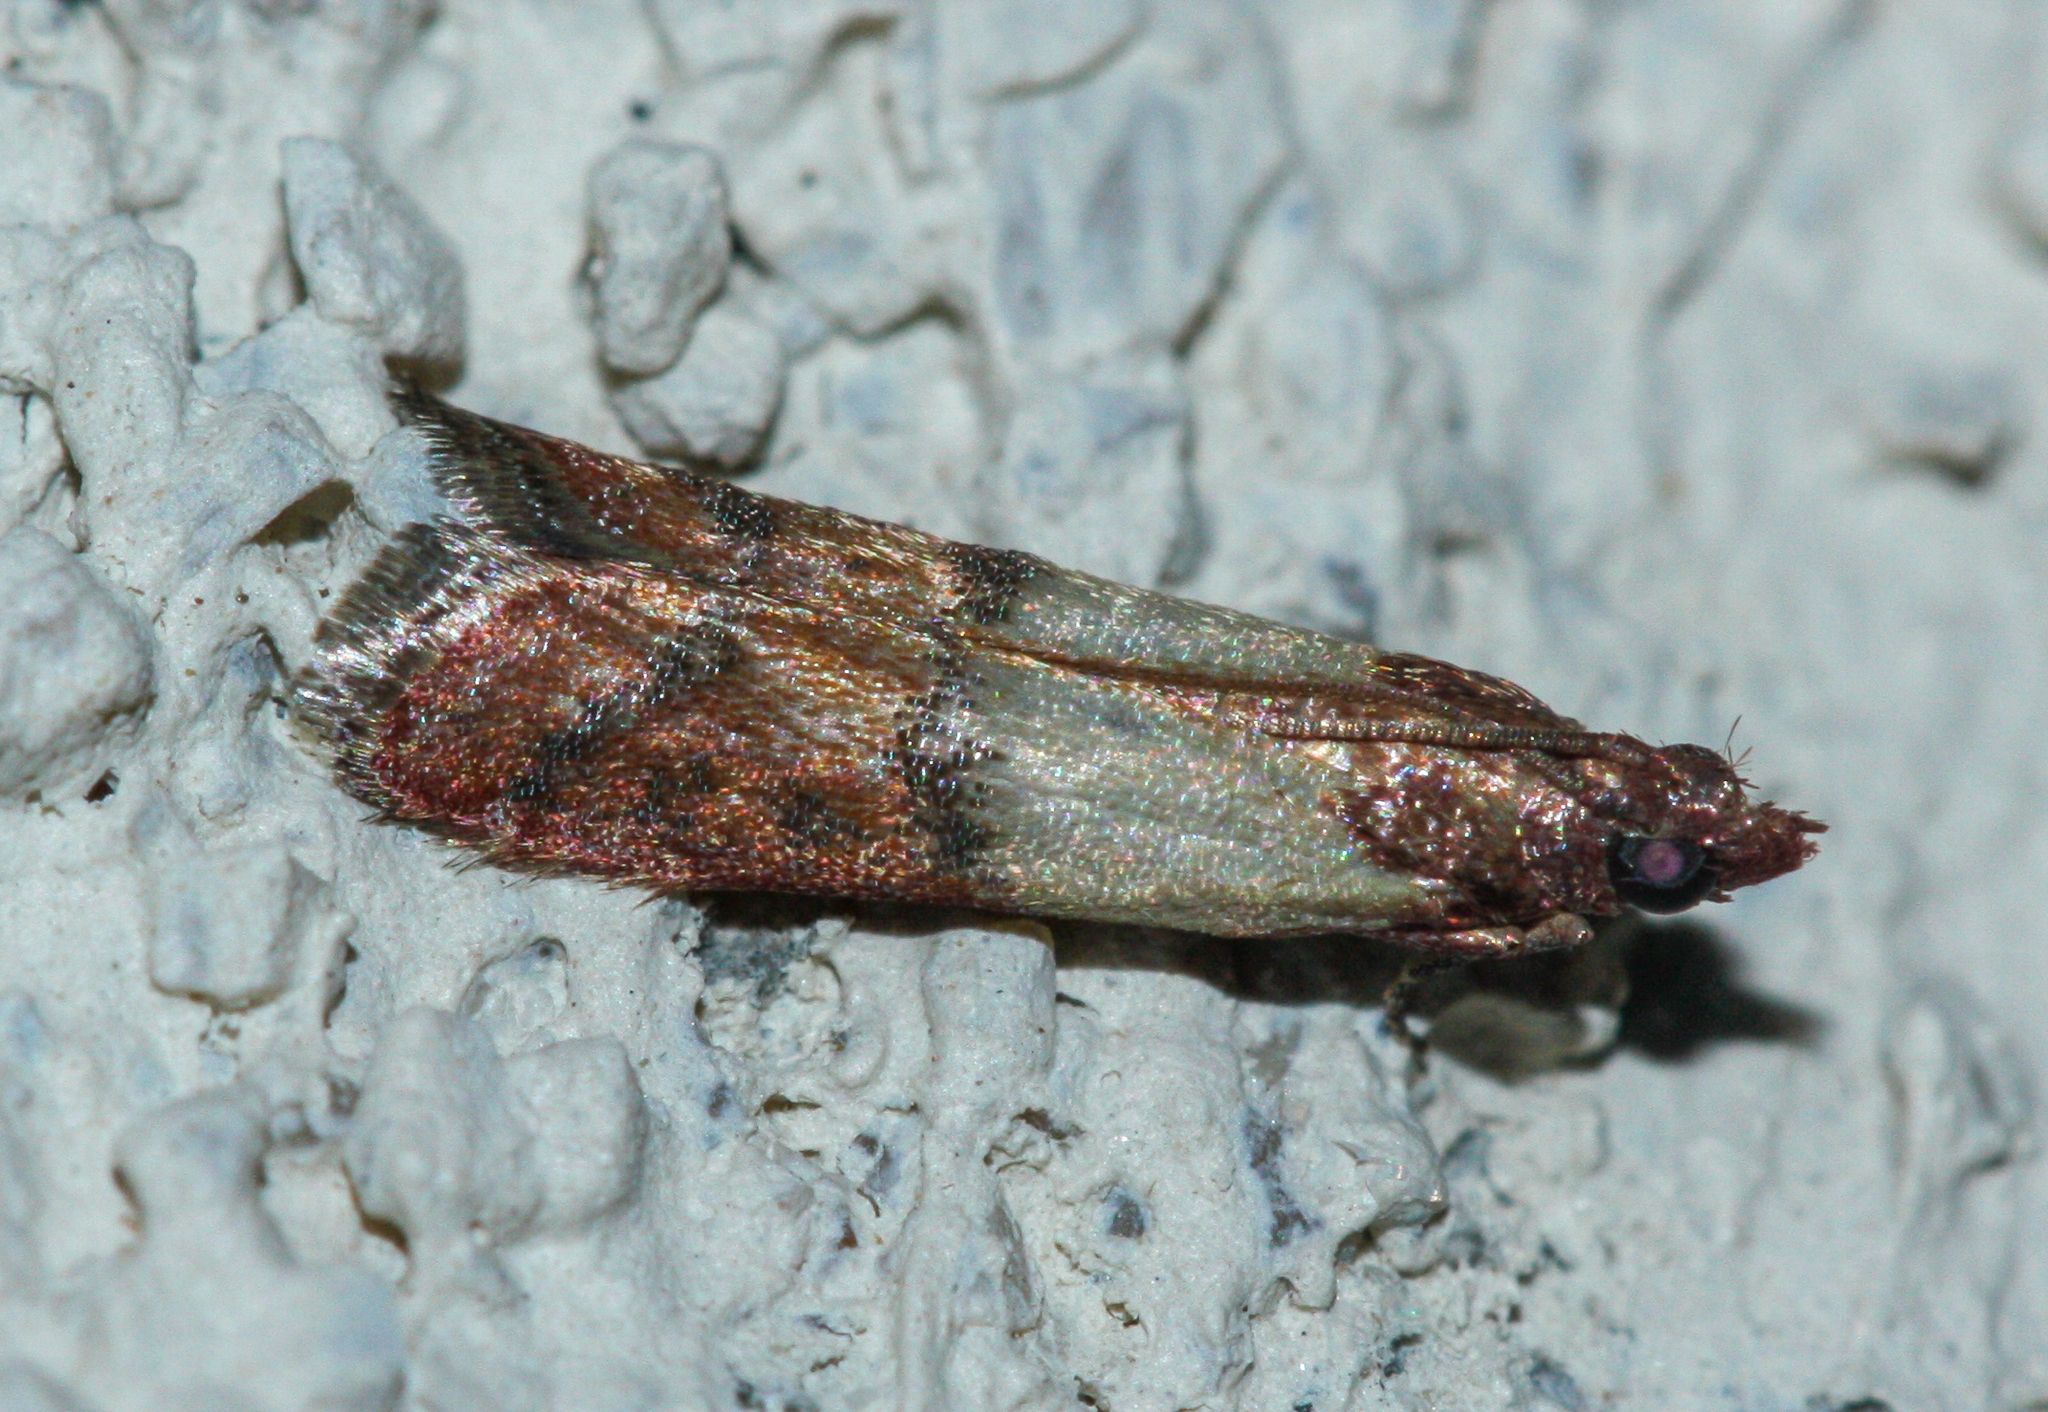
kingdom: Animalia
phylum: Arthropoda
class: Insecta
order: Lepidoptera
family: Pyralidae
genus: Plodia
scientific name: Plodia interpunctella
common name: Indian meal moth
